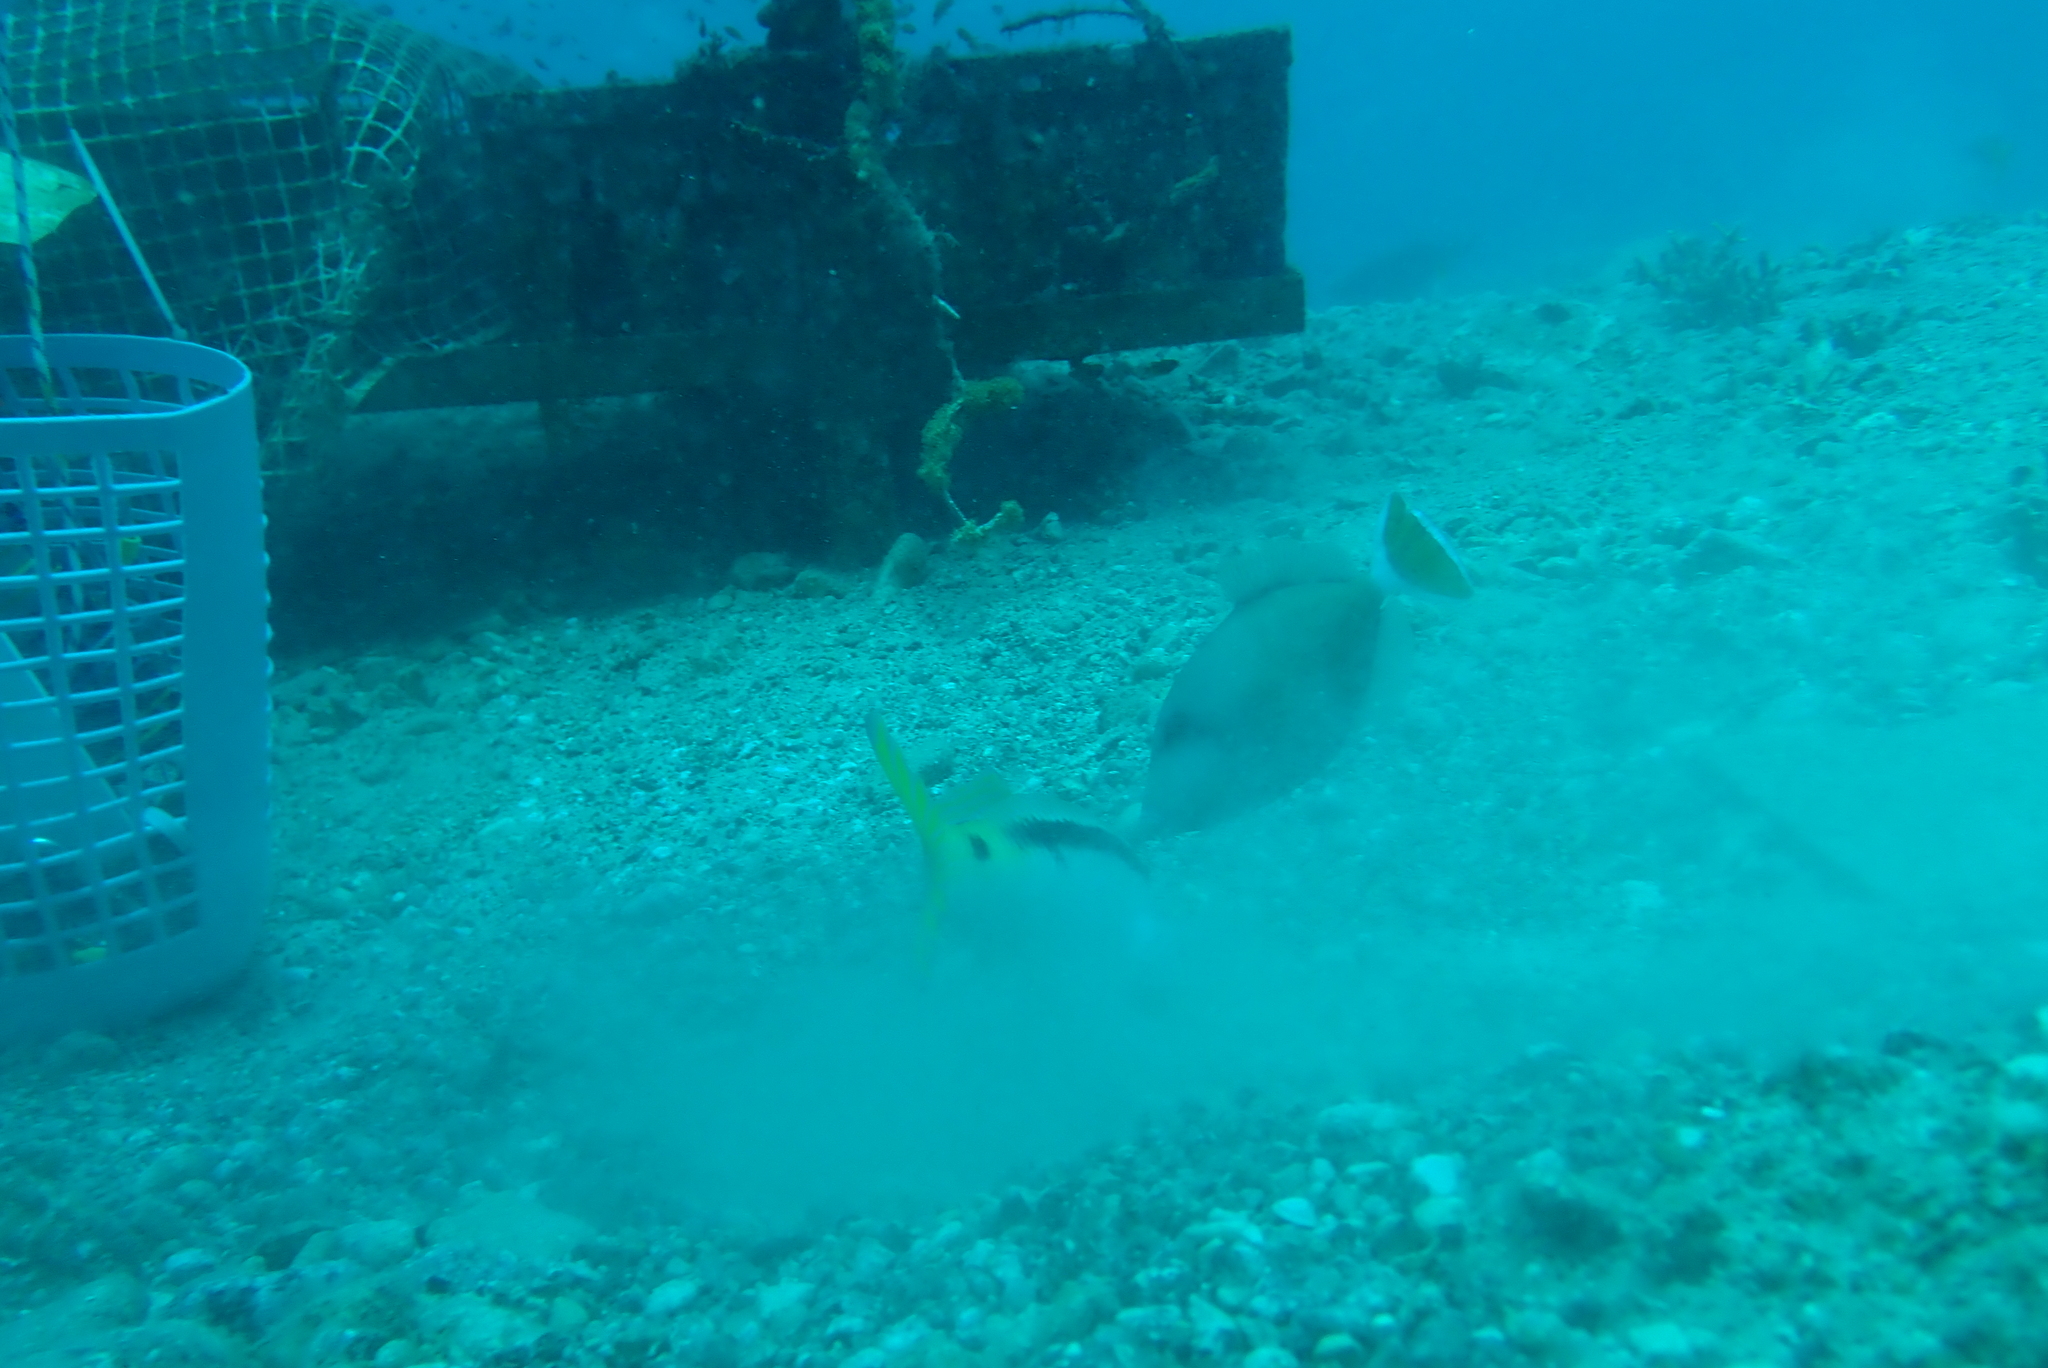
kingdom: Animalia
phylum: Chordata
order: Tetraodontiformes
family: Balistidae
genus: Sufflamen
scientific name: Sufflamen albicaudatum
